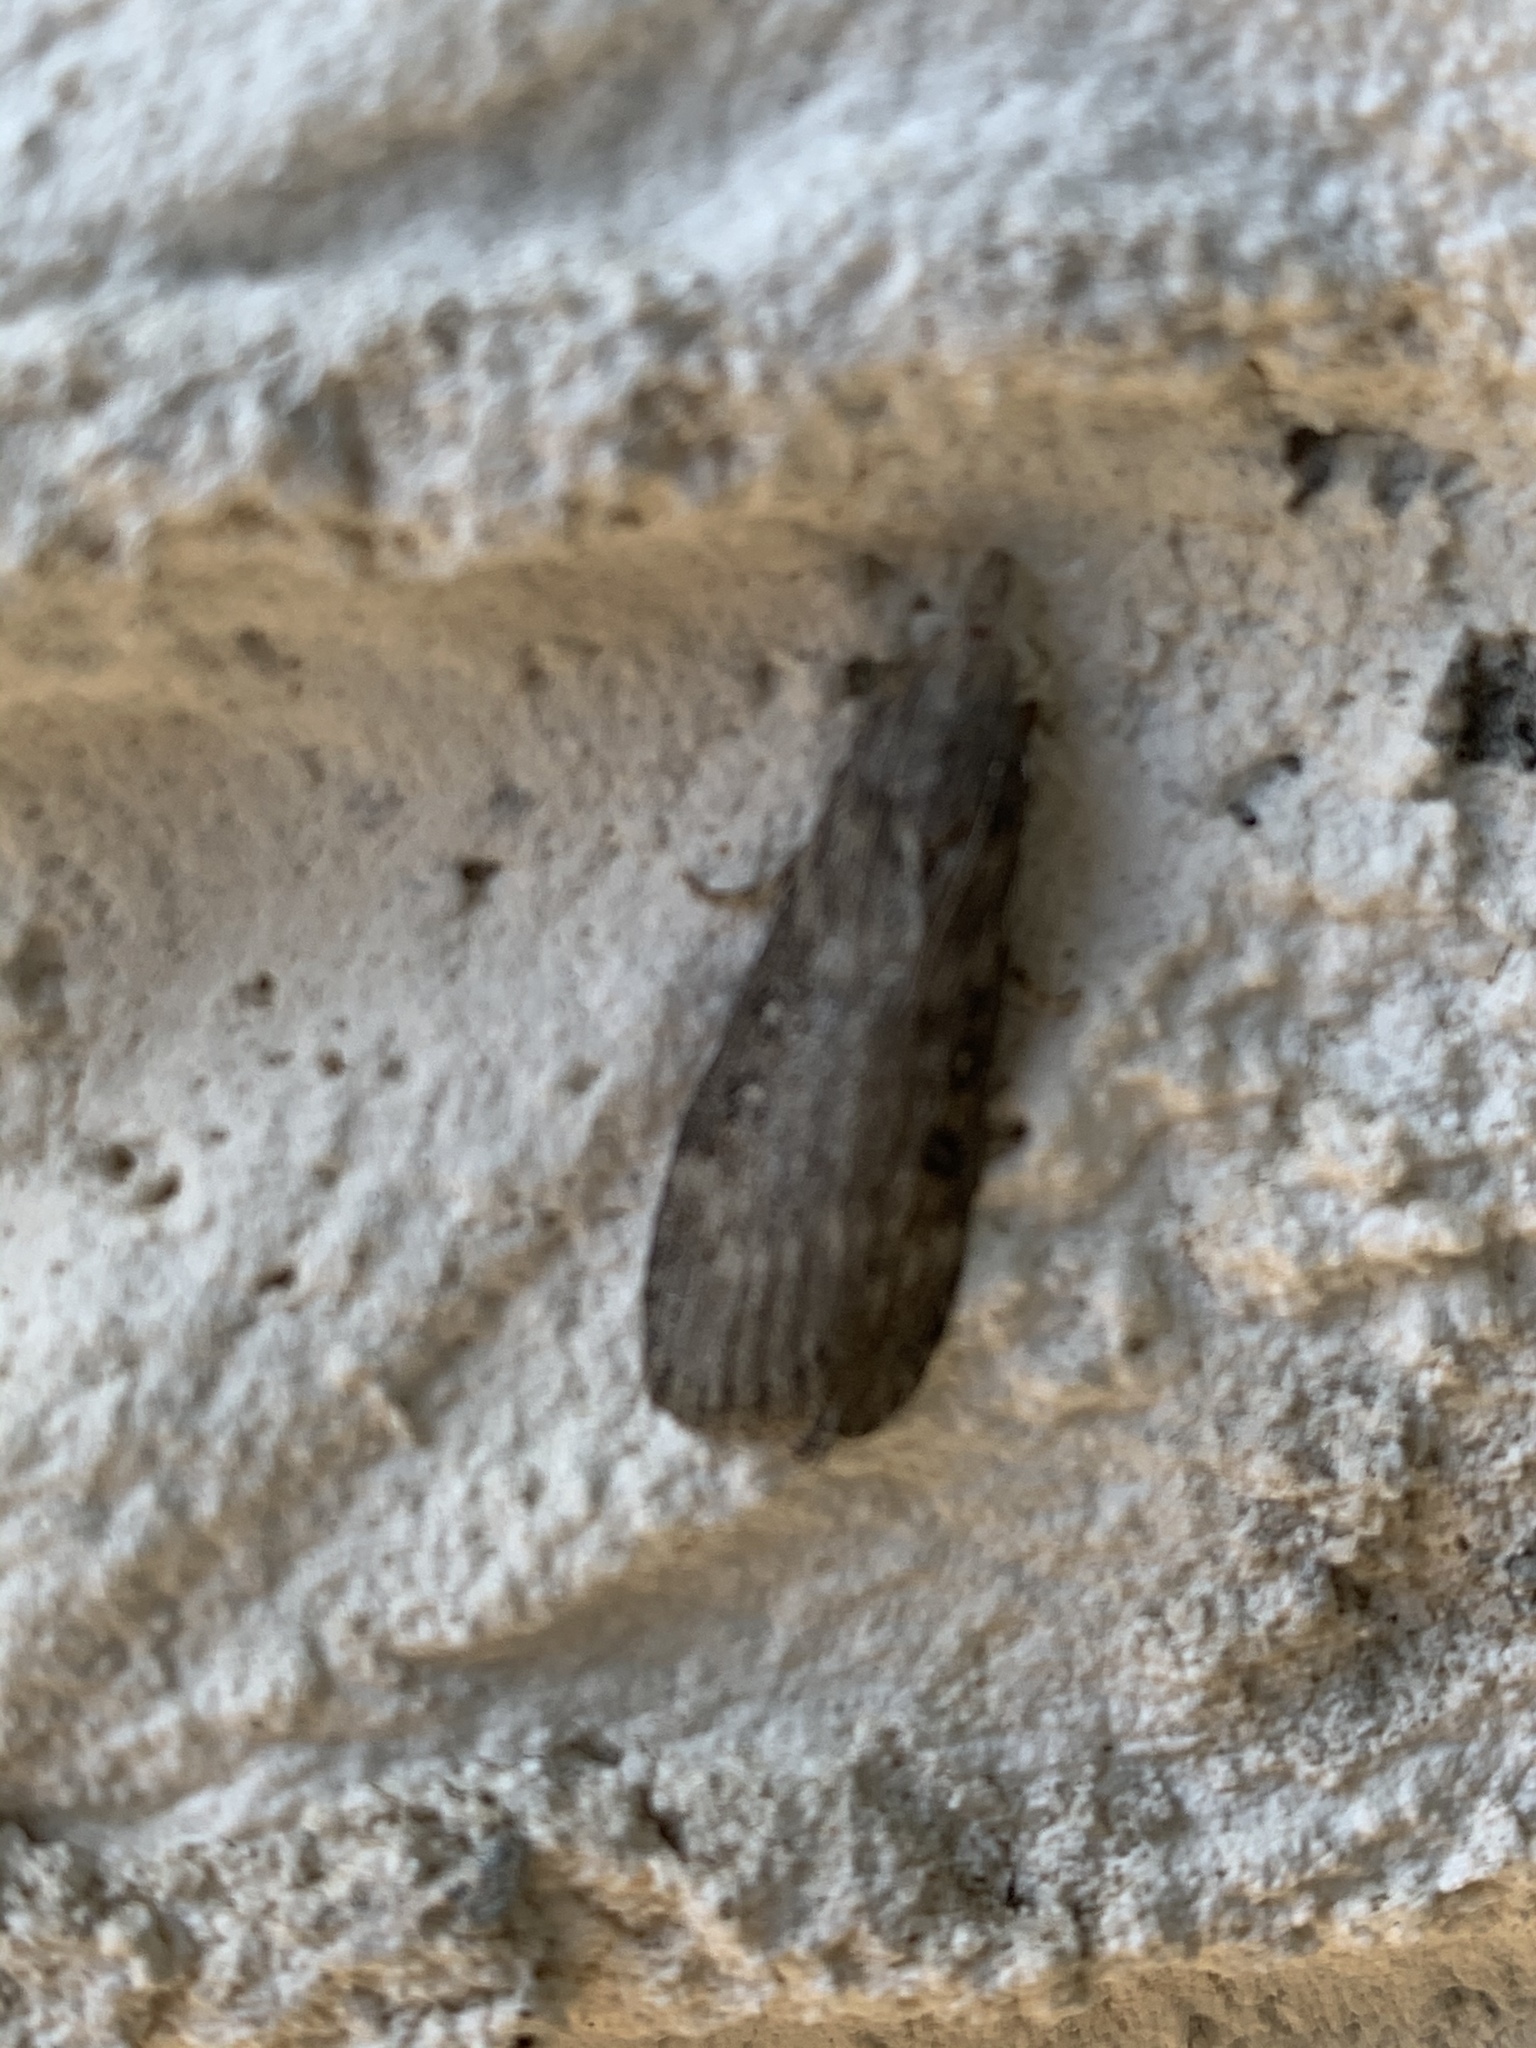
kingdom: Animalia
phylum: Arthropoda
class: Insecta
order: Lepidoptera
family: Pyralidae
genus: Lamoria
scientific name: Lamoria anella
